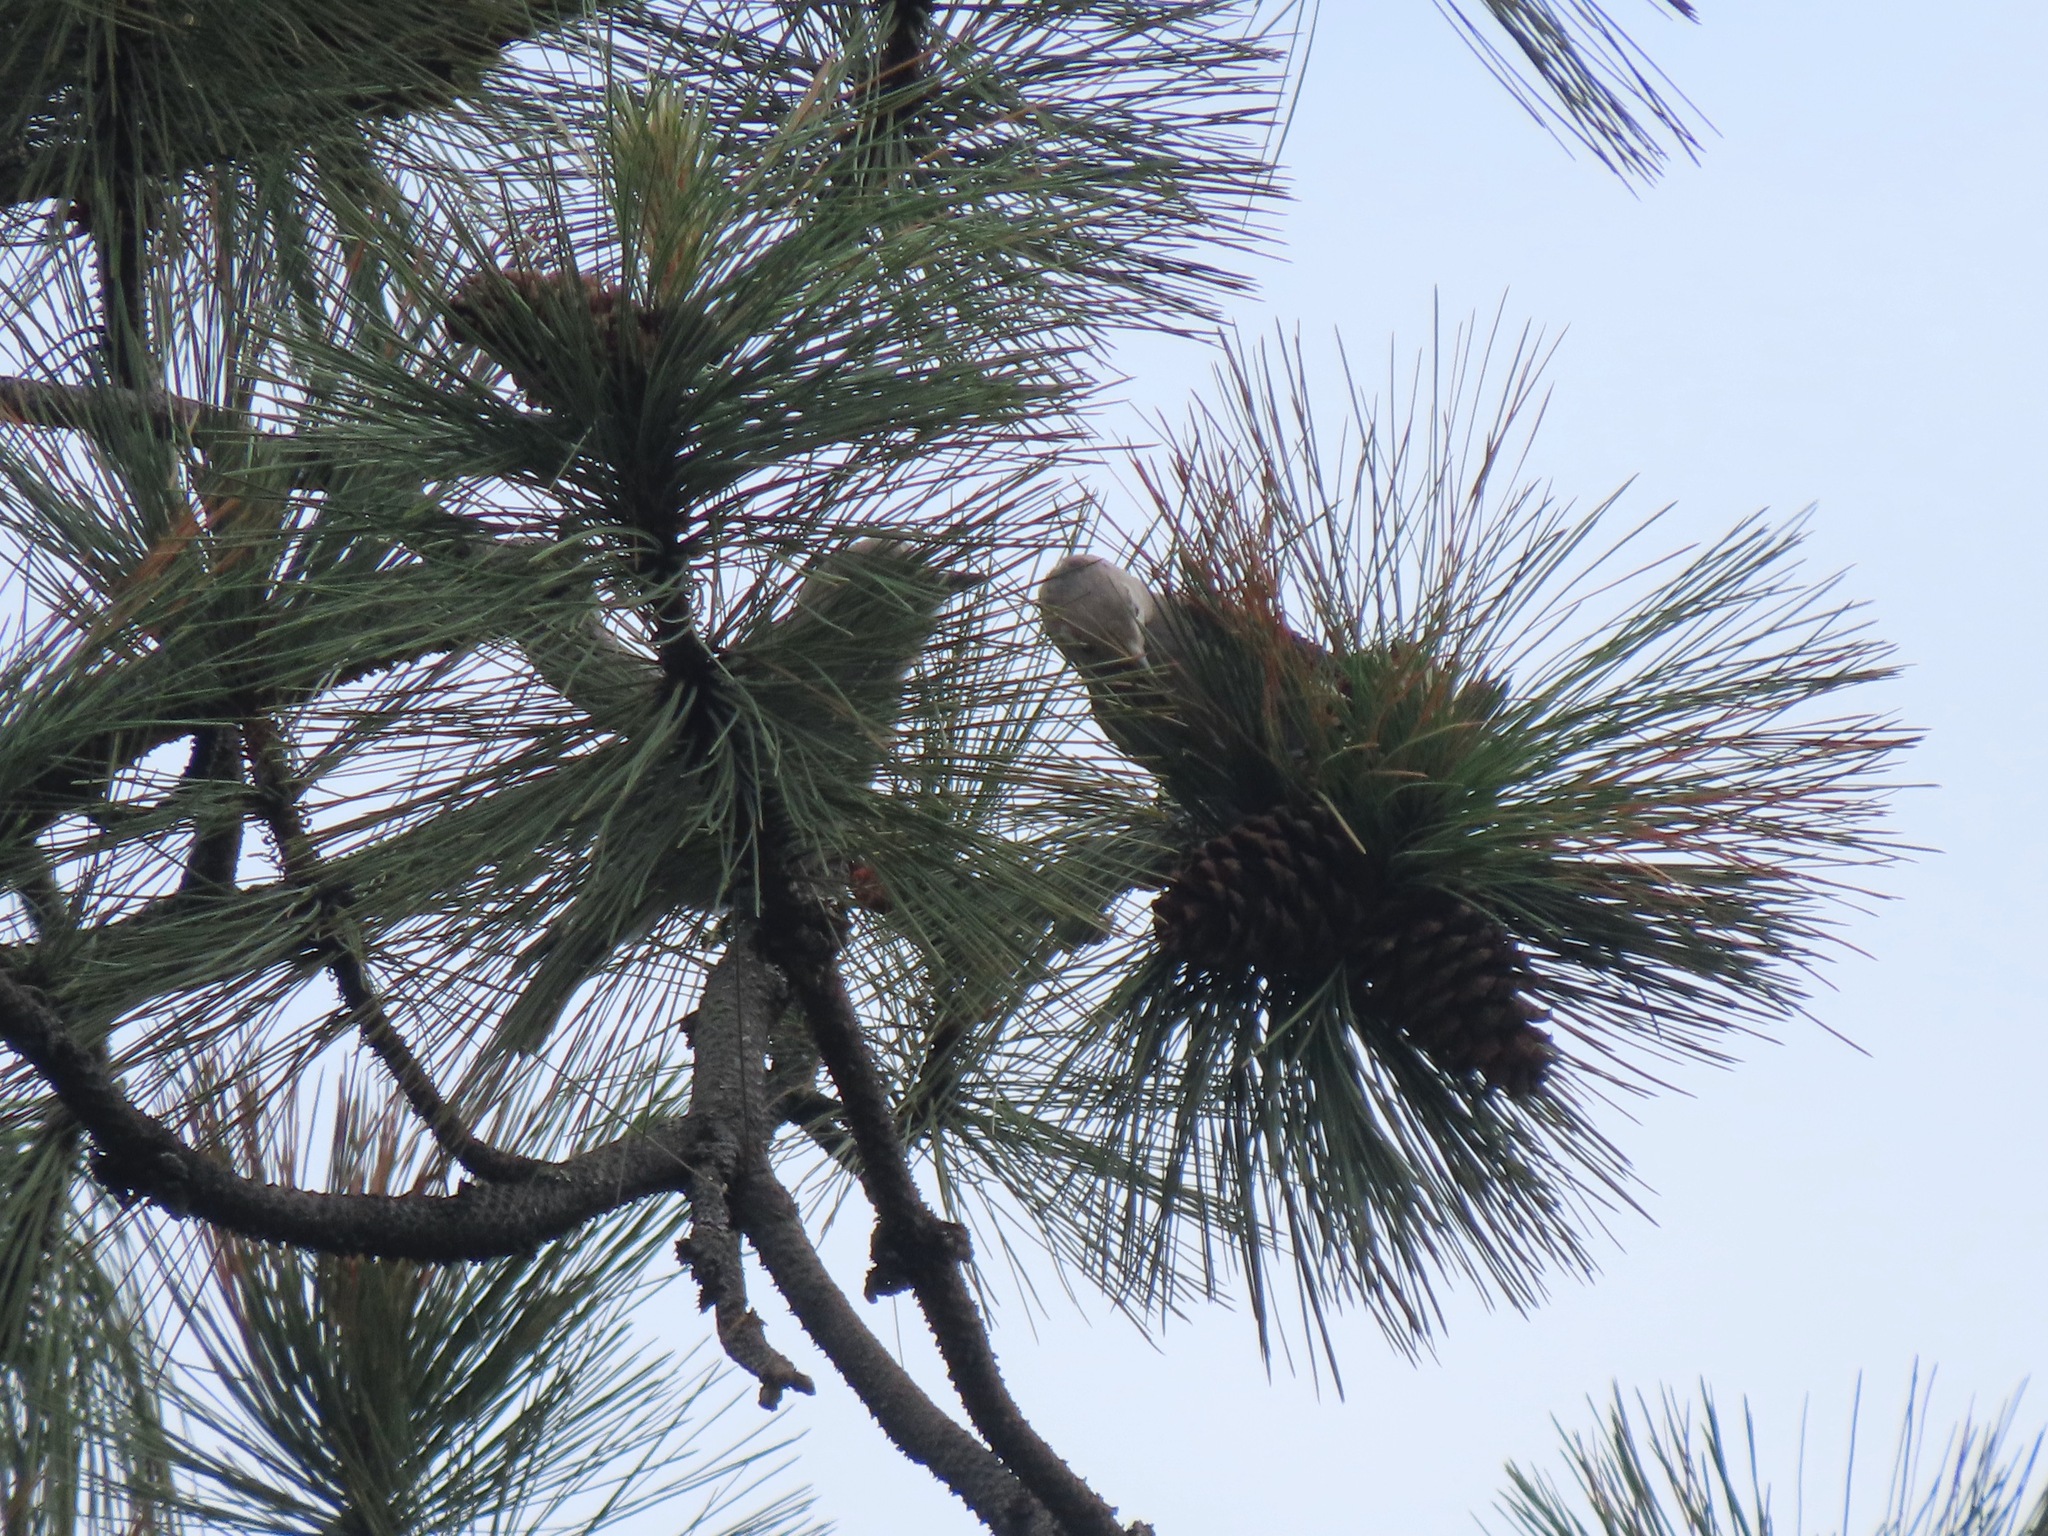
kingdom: Animalia
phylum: Chordata
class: Aves
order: Passeriformes
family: Corvidae
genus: Nucifraga
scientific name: Nucifraga columbiana
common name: Clark's nutcracker
